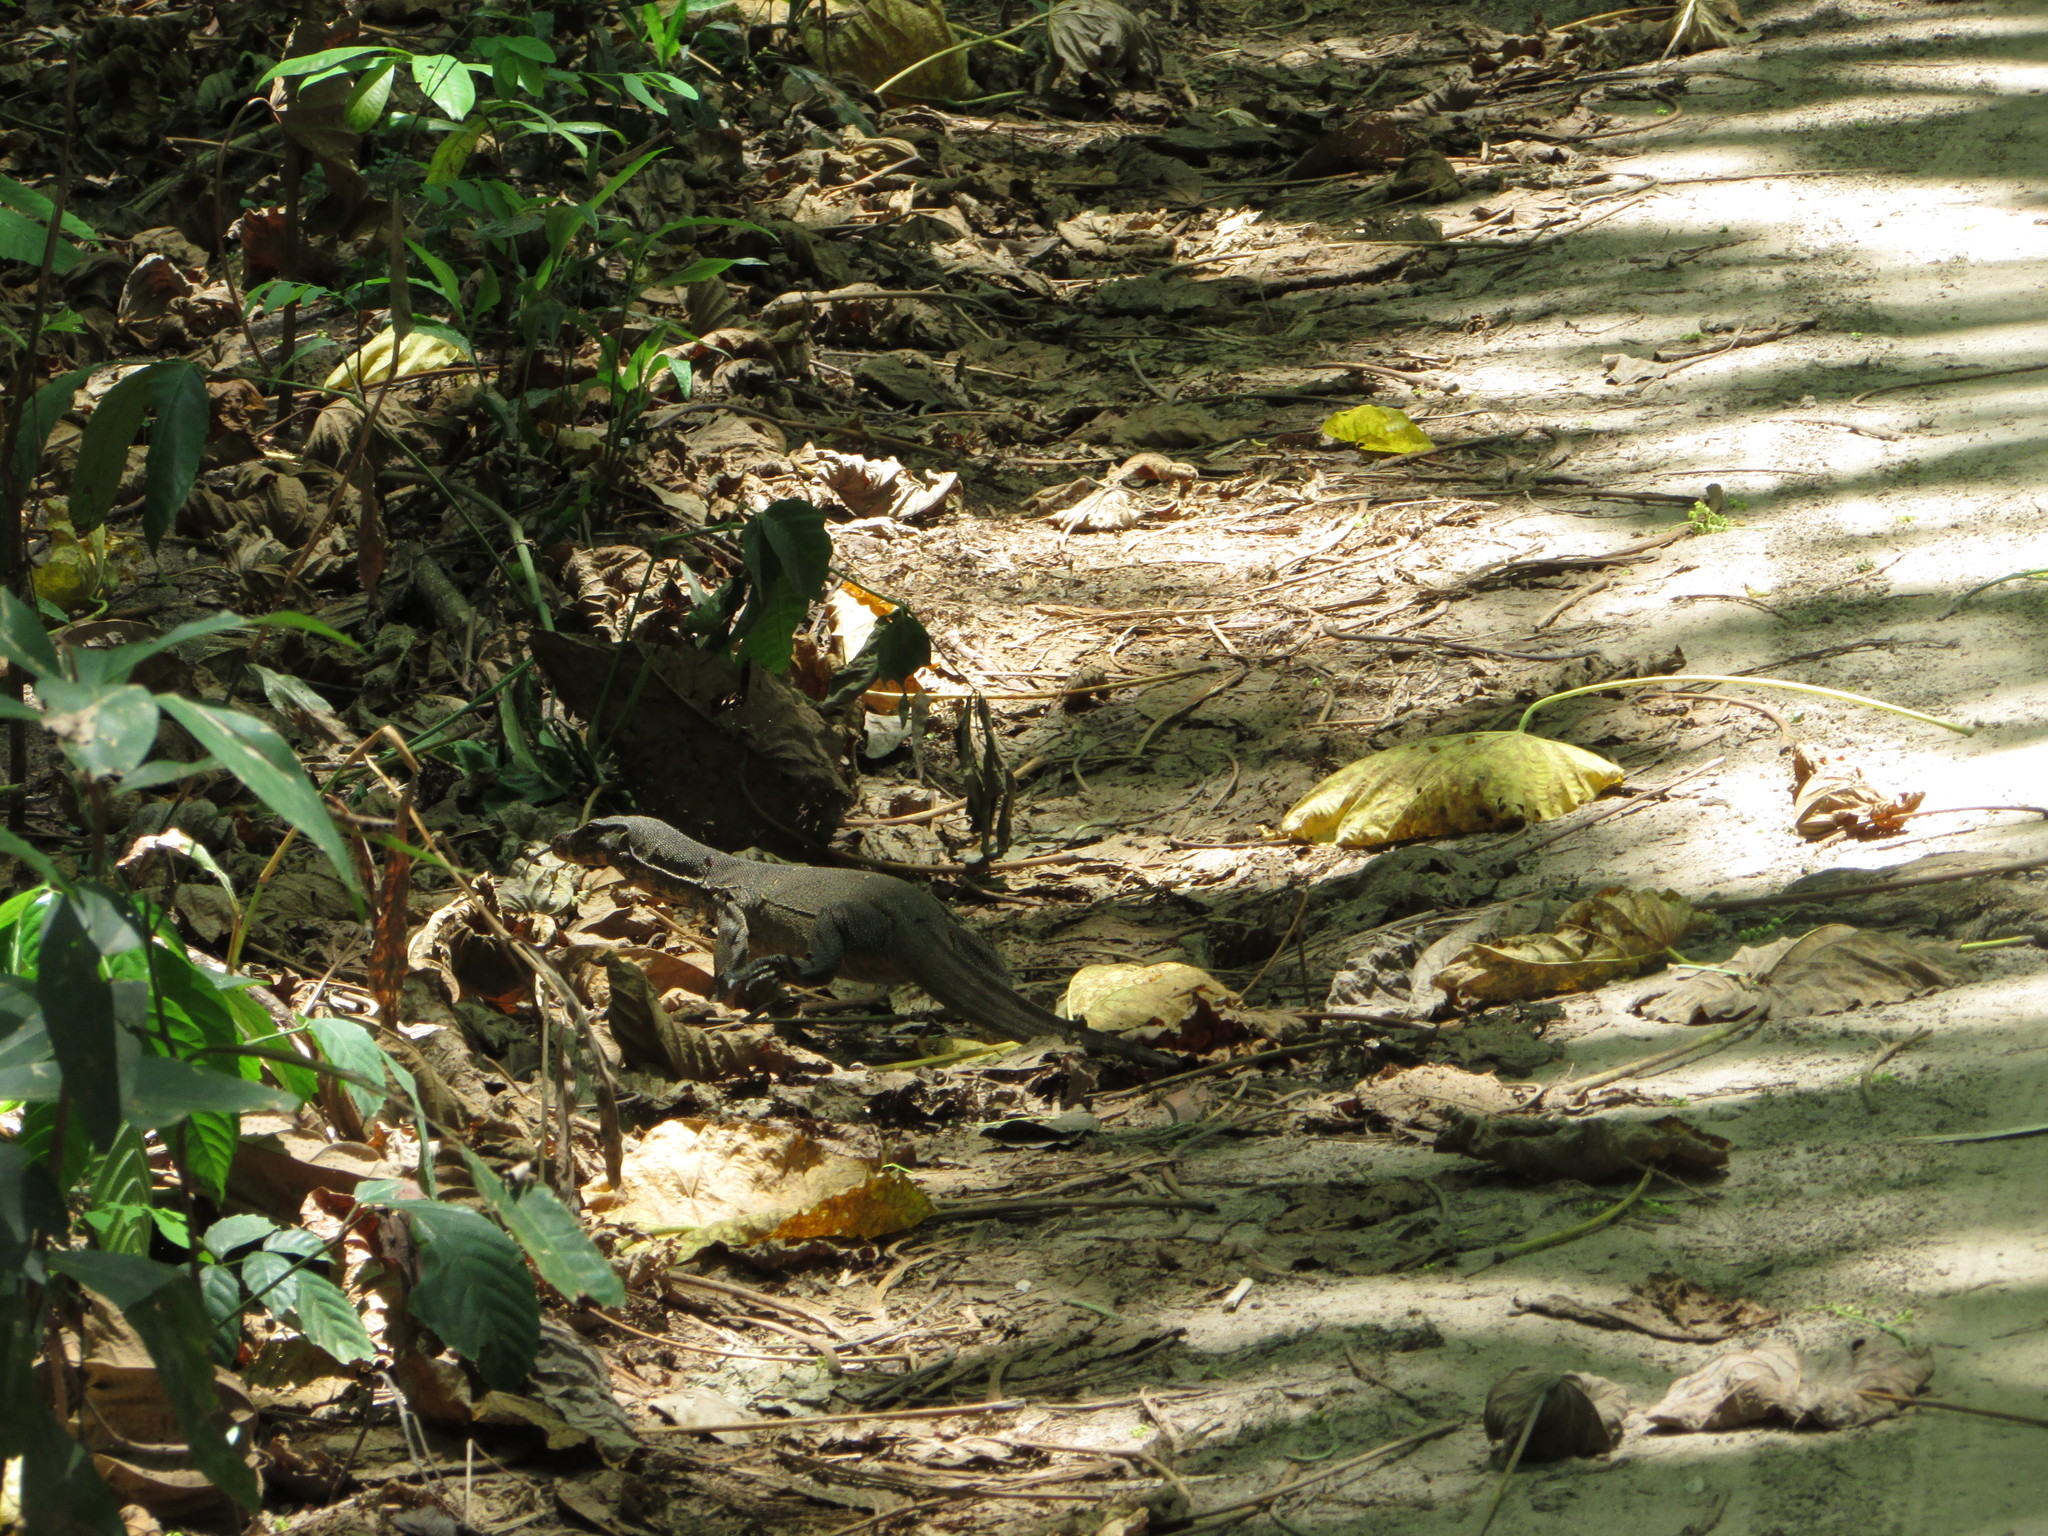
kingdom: Animalia
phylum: Chordata
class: Squamata
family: Varanidae
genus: Varanus
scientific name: Varanus salvator
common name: Common water monitor
